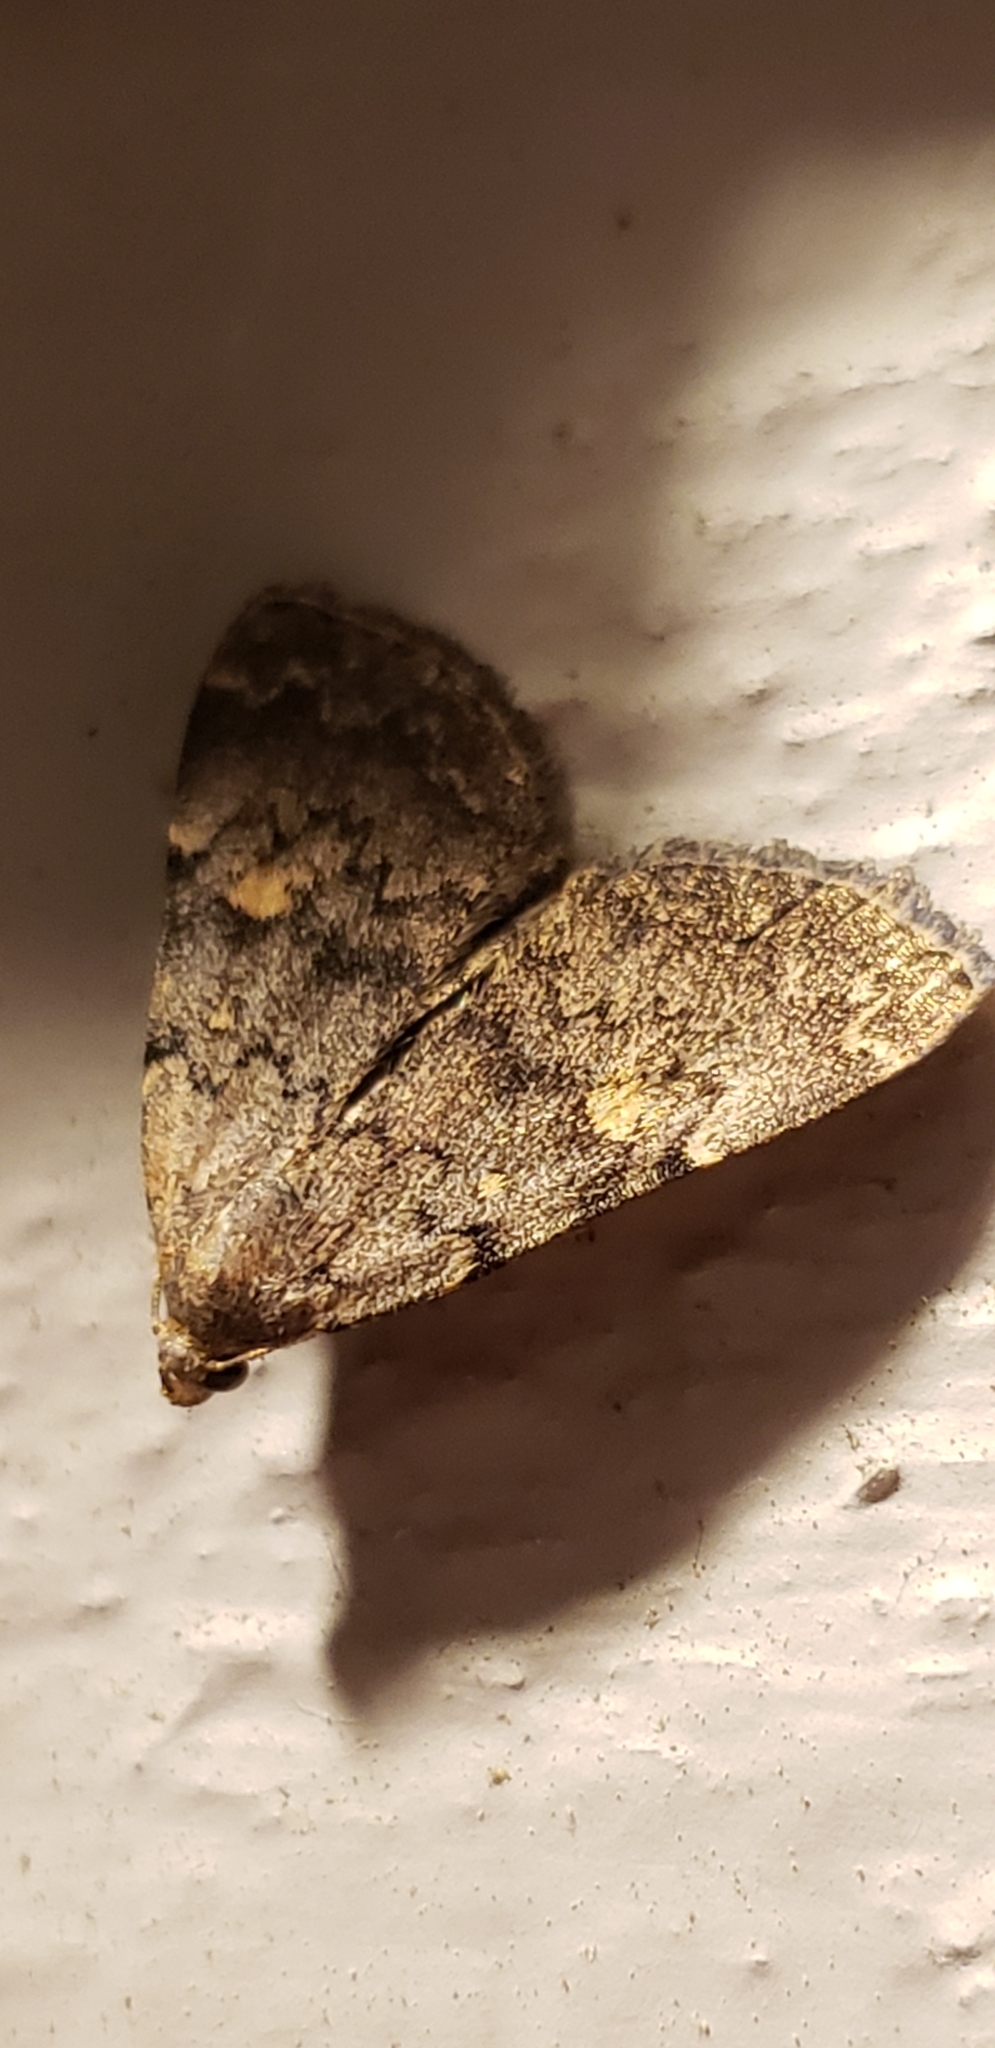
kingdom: Animalia
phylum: Arthropoda
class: Insecta
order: Lepidoptera
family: Erebidae
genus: Idia
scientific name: Idia aemula
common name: Common idia moth
